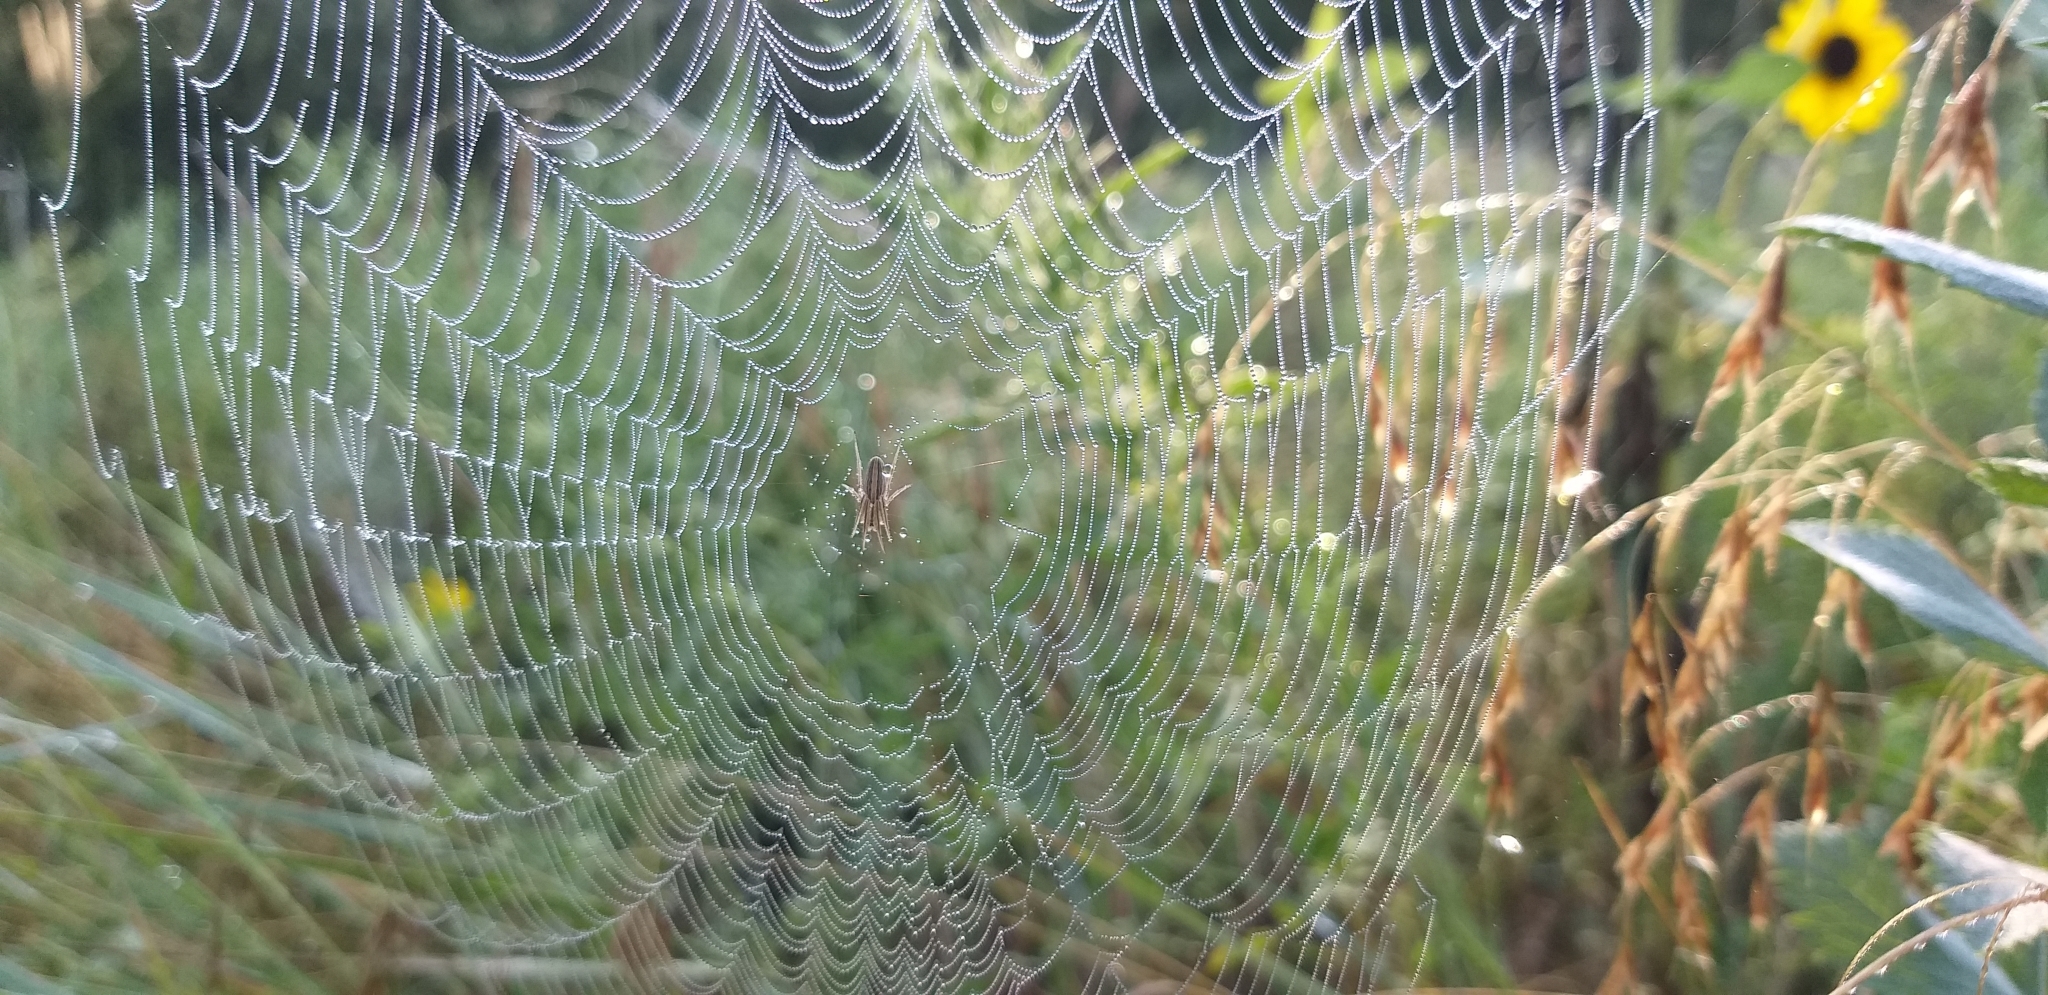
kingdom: Animalia
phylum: Arthropoda
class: Arachnida
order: Araneae
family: Araneidae
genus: Larinia
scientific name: Larinia borealis
